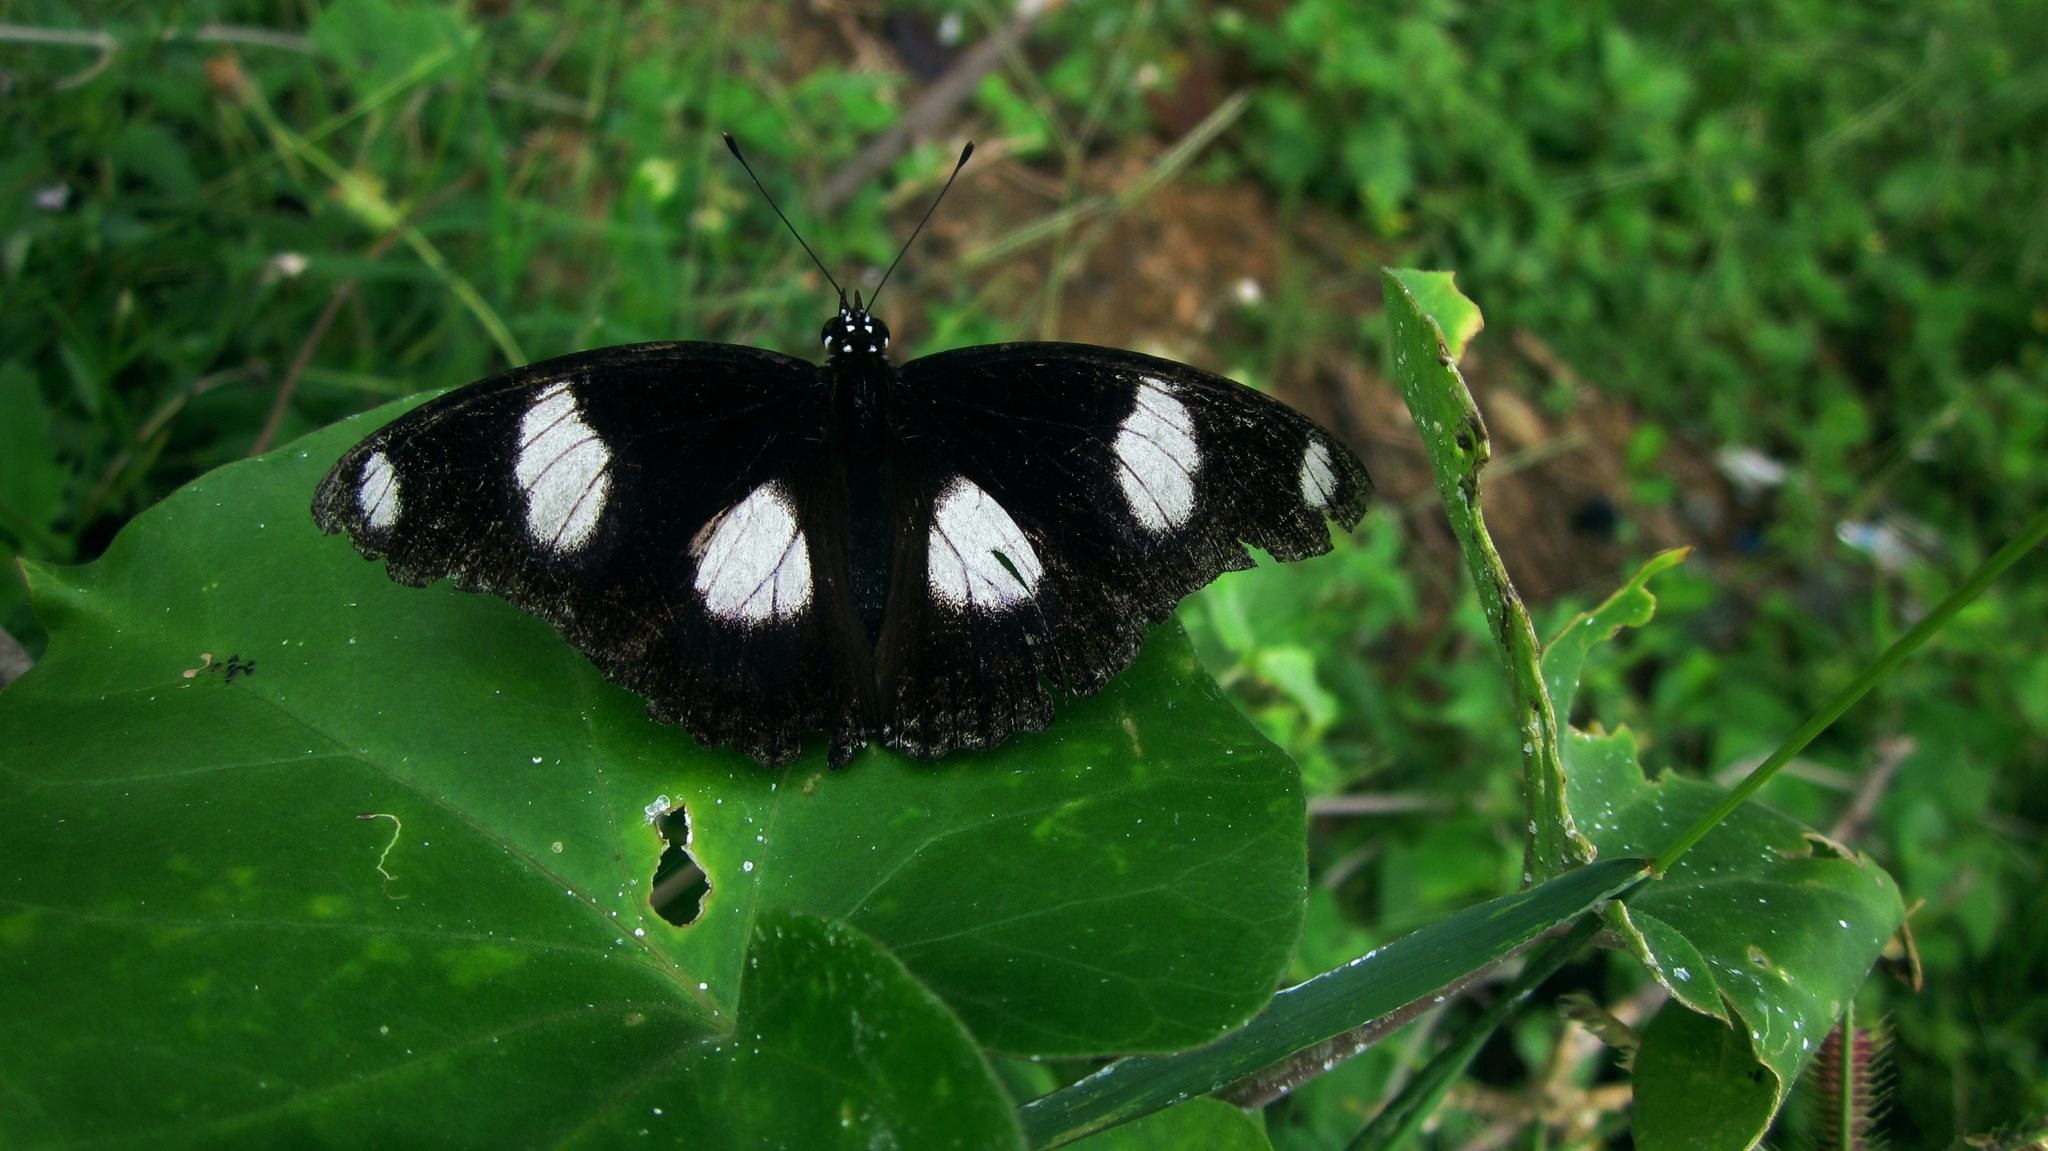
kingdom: Animalia
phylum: Arthropoda
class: Insecta
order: Lepidoptera
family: Nymphalidae
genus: Hypolimnas
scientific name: Hypolimnas misippus
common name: False plain tiger
